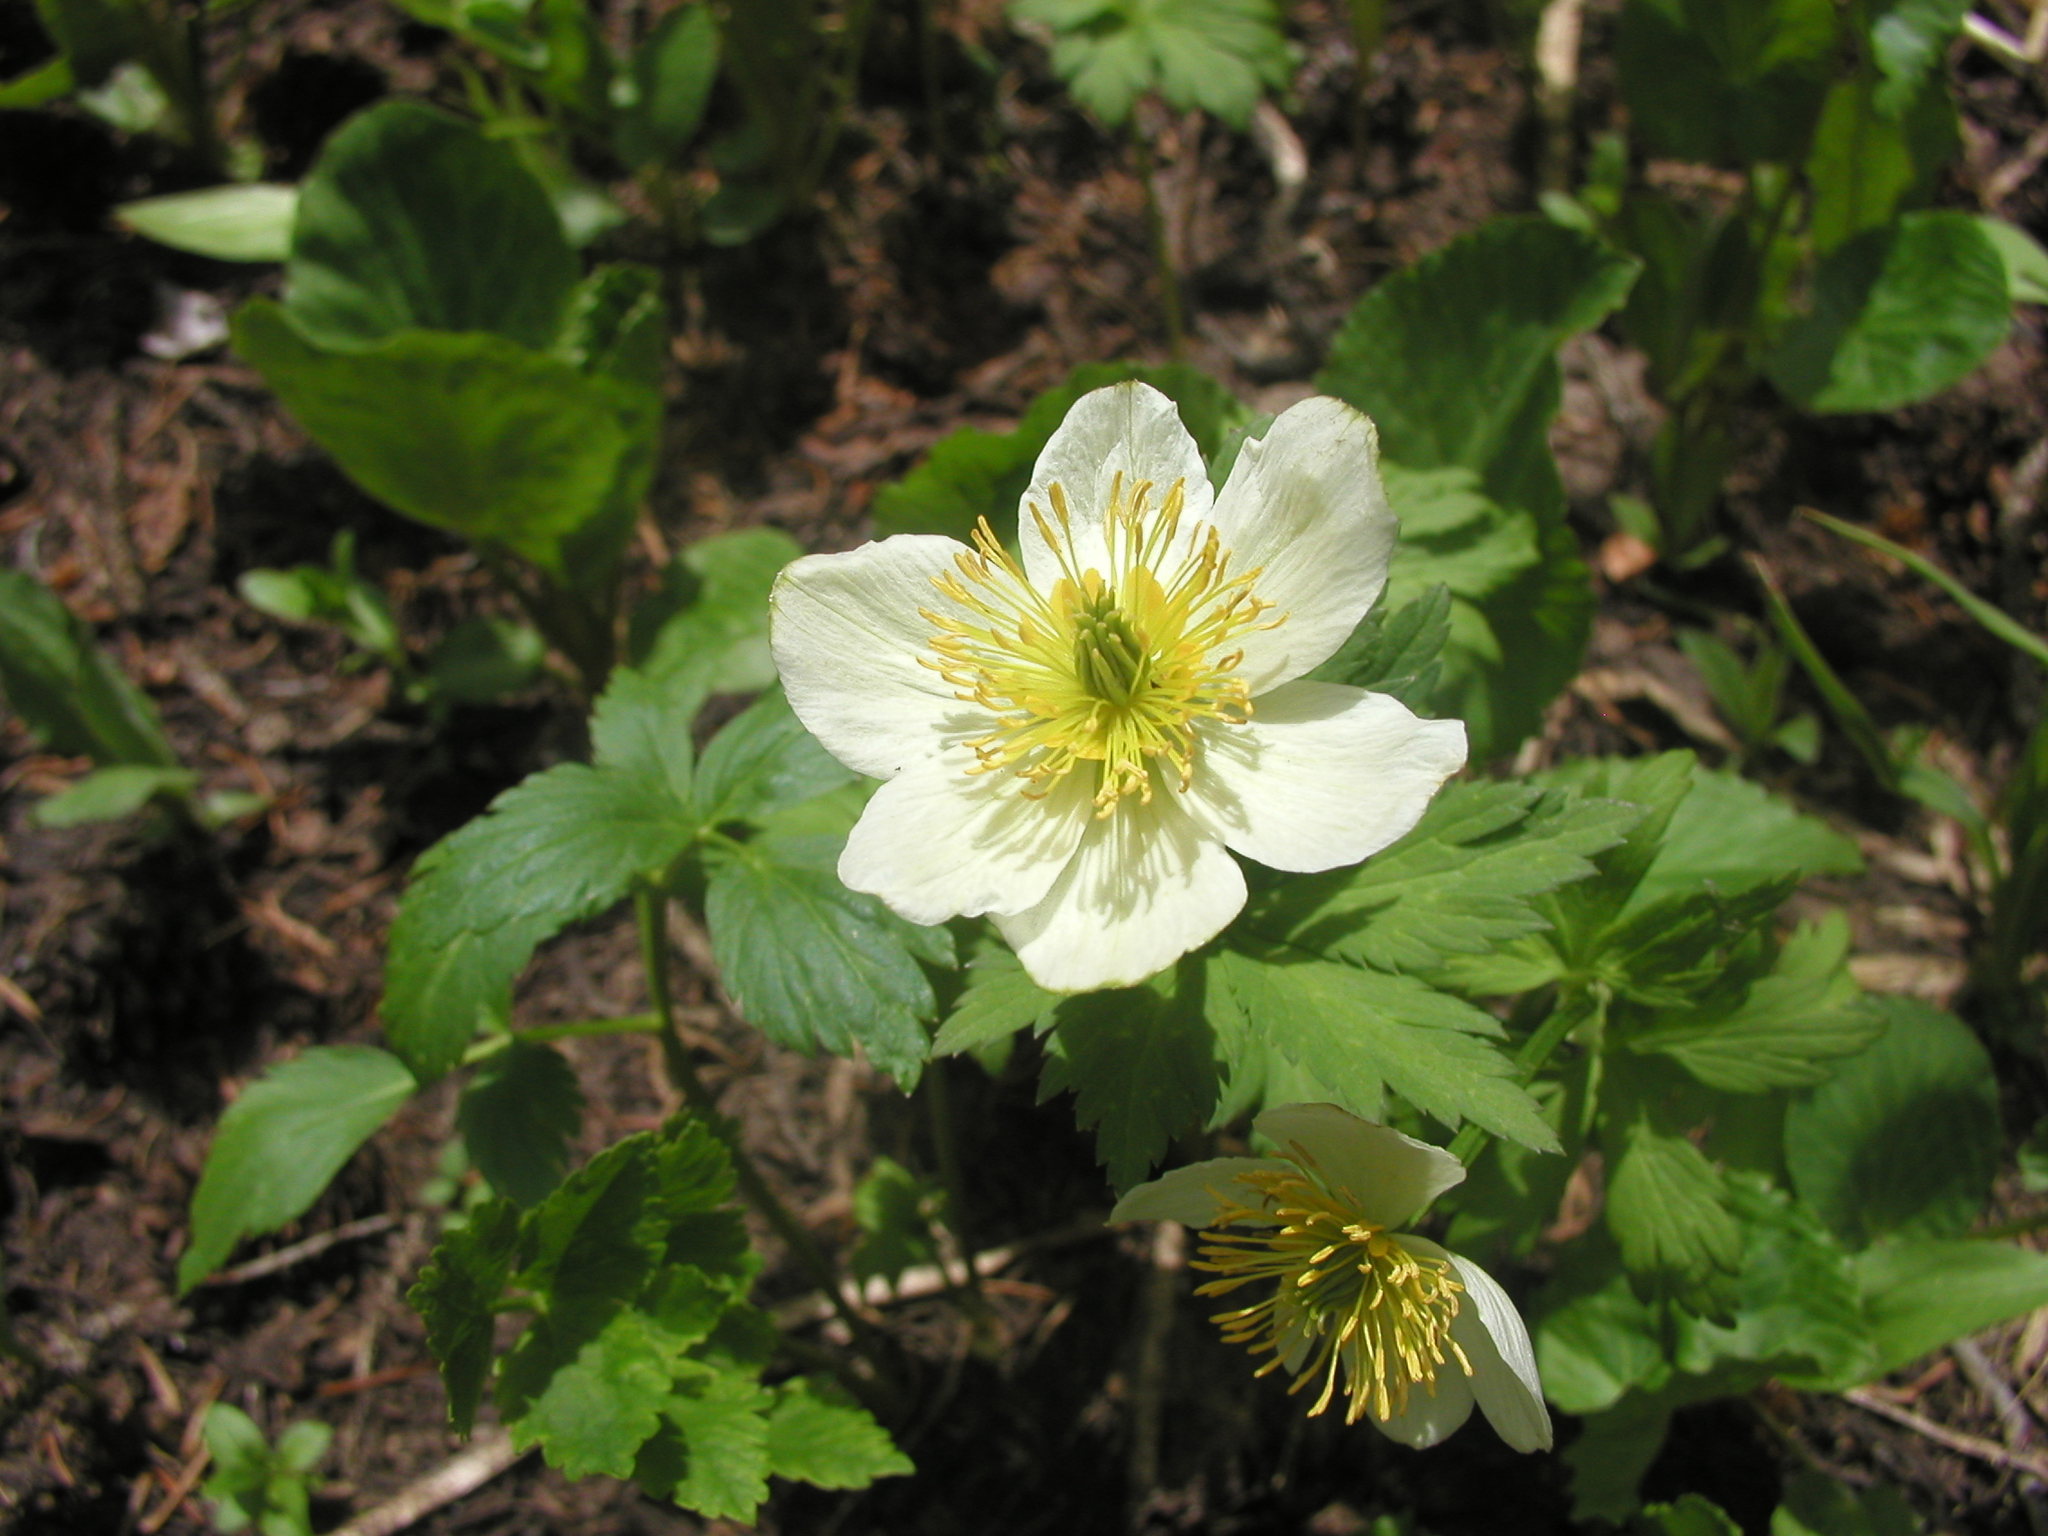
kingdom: Plantae
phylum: Tracheophyta
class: Magnoliopsida
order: Ranunculales
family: Ranunculaceae
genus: Trollius
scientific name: Trollius laxus
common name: American globeflower
